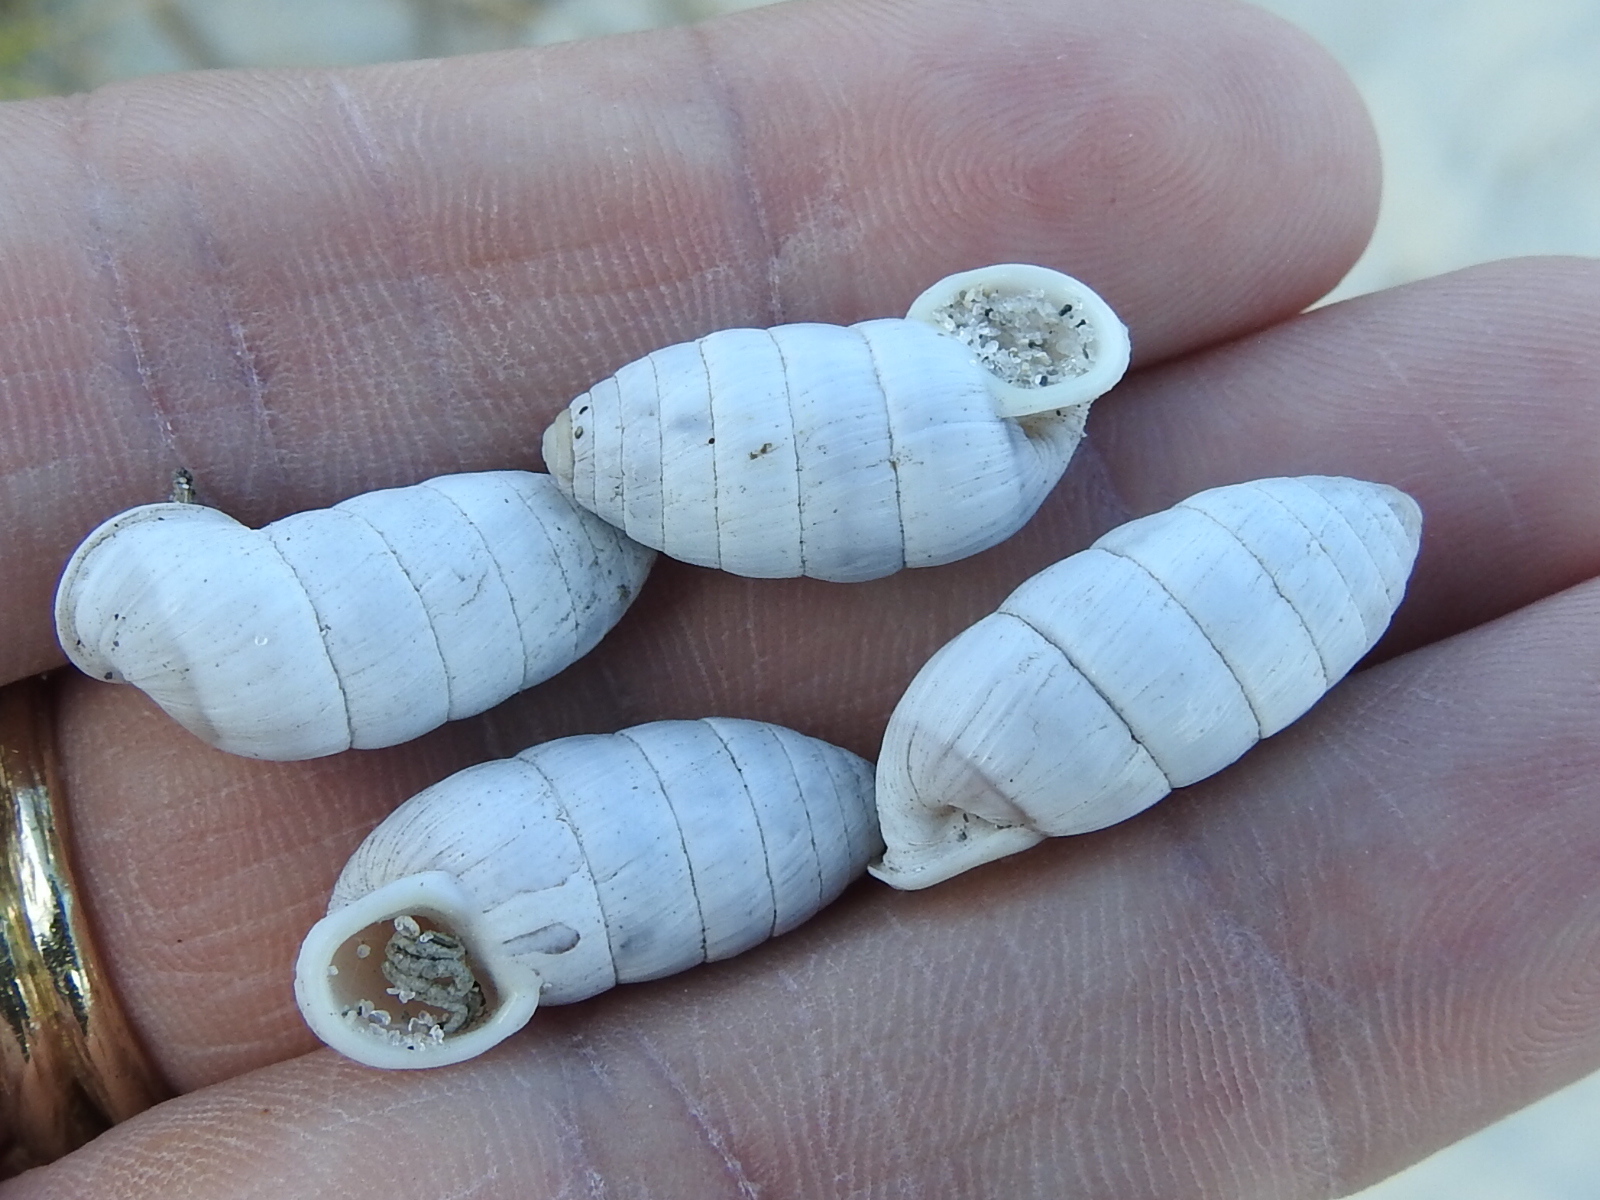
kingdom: Animalia
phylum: Mollusca
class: Gastropoda
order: Stylommatophora
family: Cerionidae
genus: Cerion
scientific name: Cerion incanum
